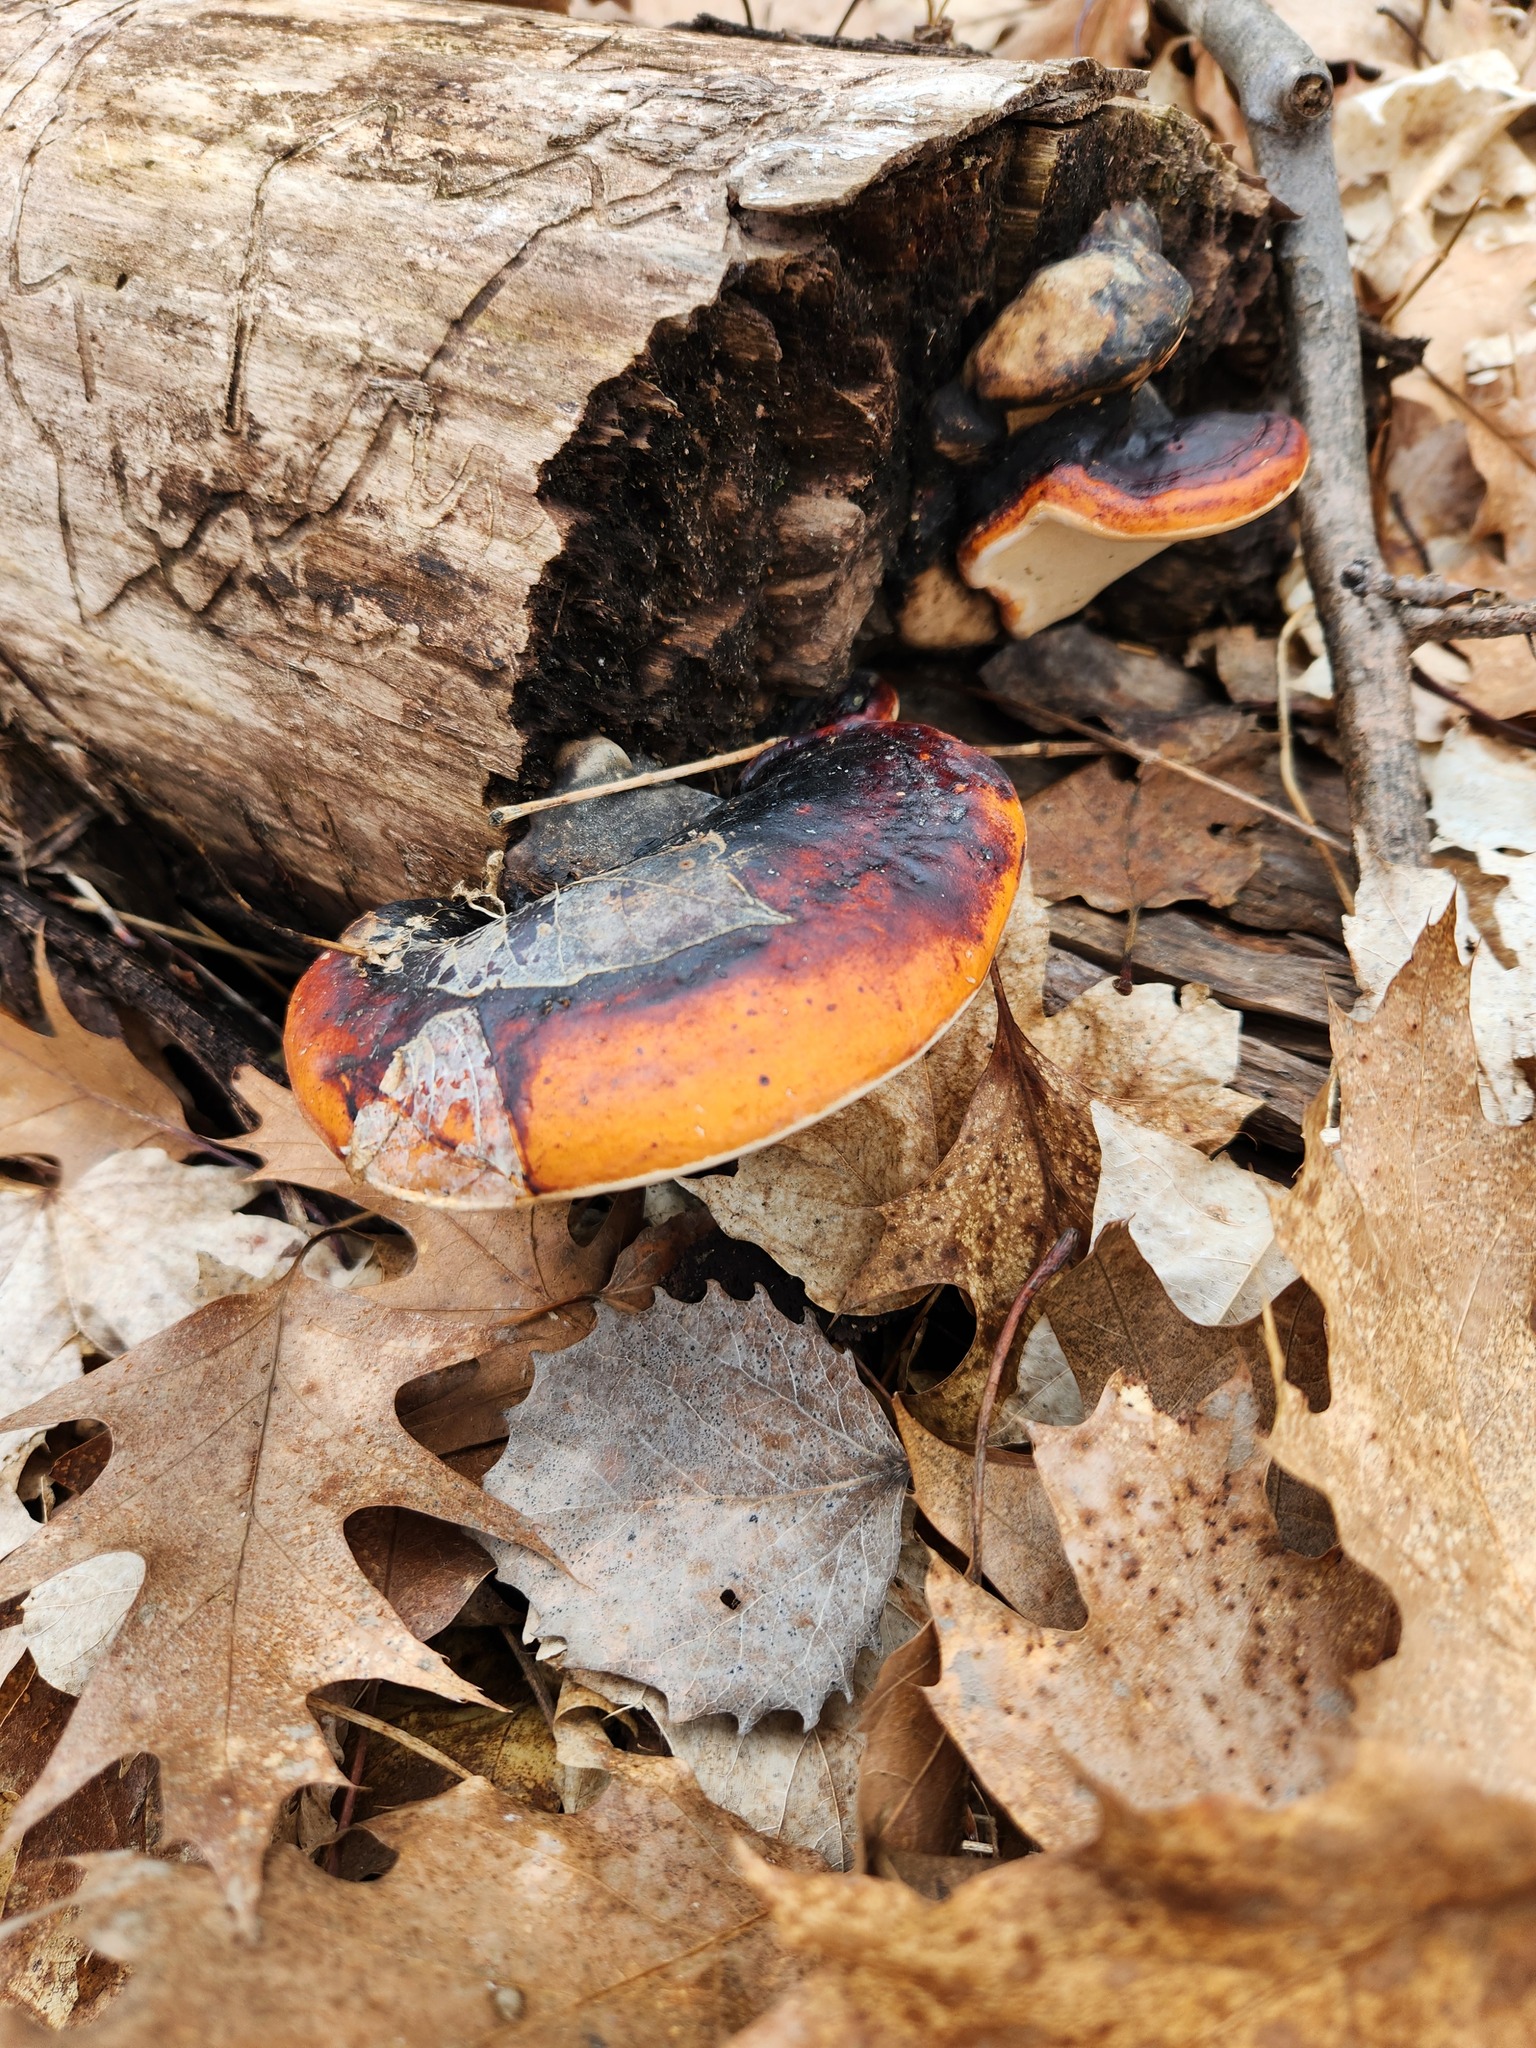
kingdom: Fungi
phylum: Basidiomycota
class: Agaricomycetes
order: Polyporales
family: Fomitopsidaceae
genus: Fomitopsis
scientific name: Fomitopsis mounceae
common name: Northern red belt
